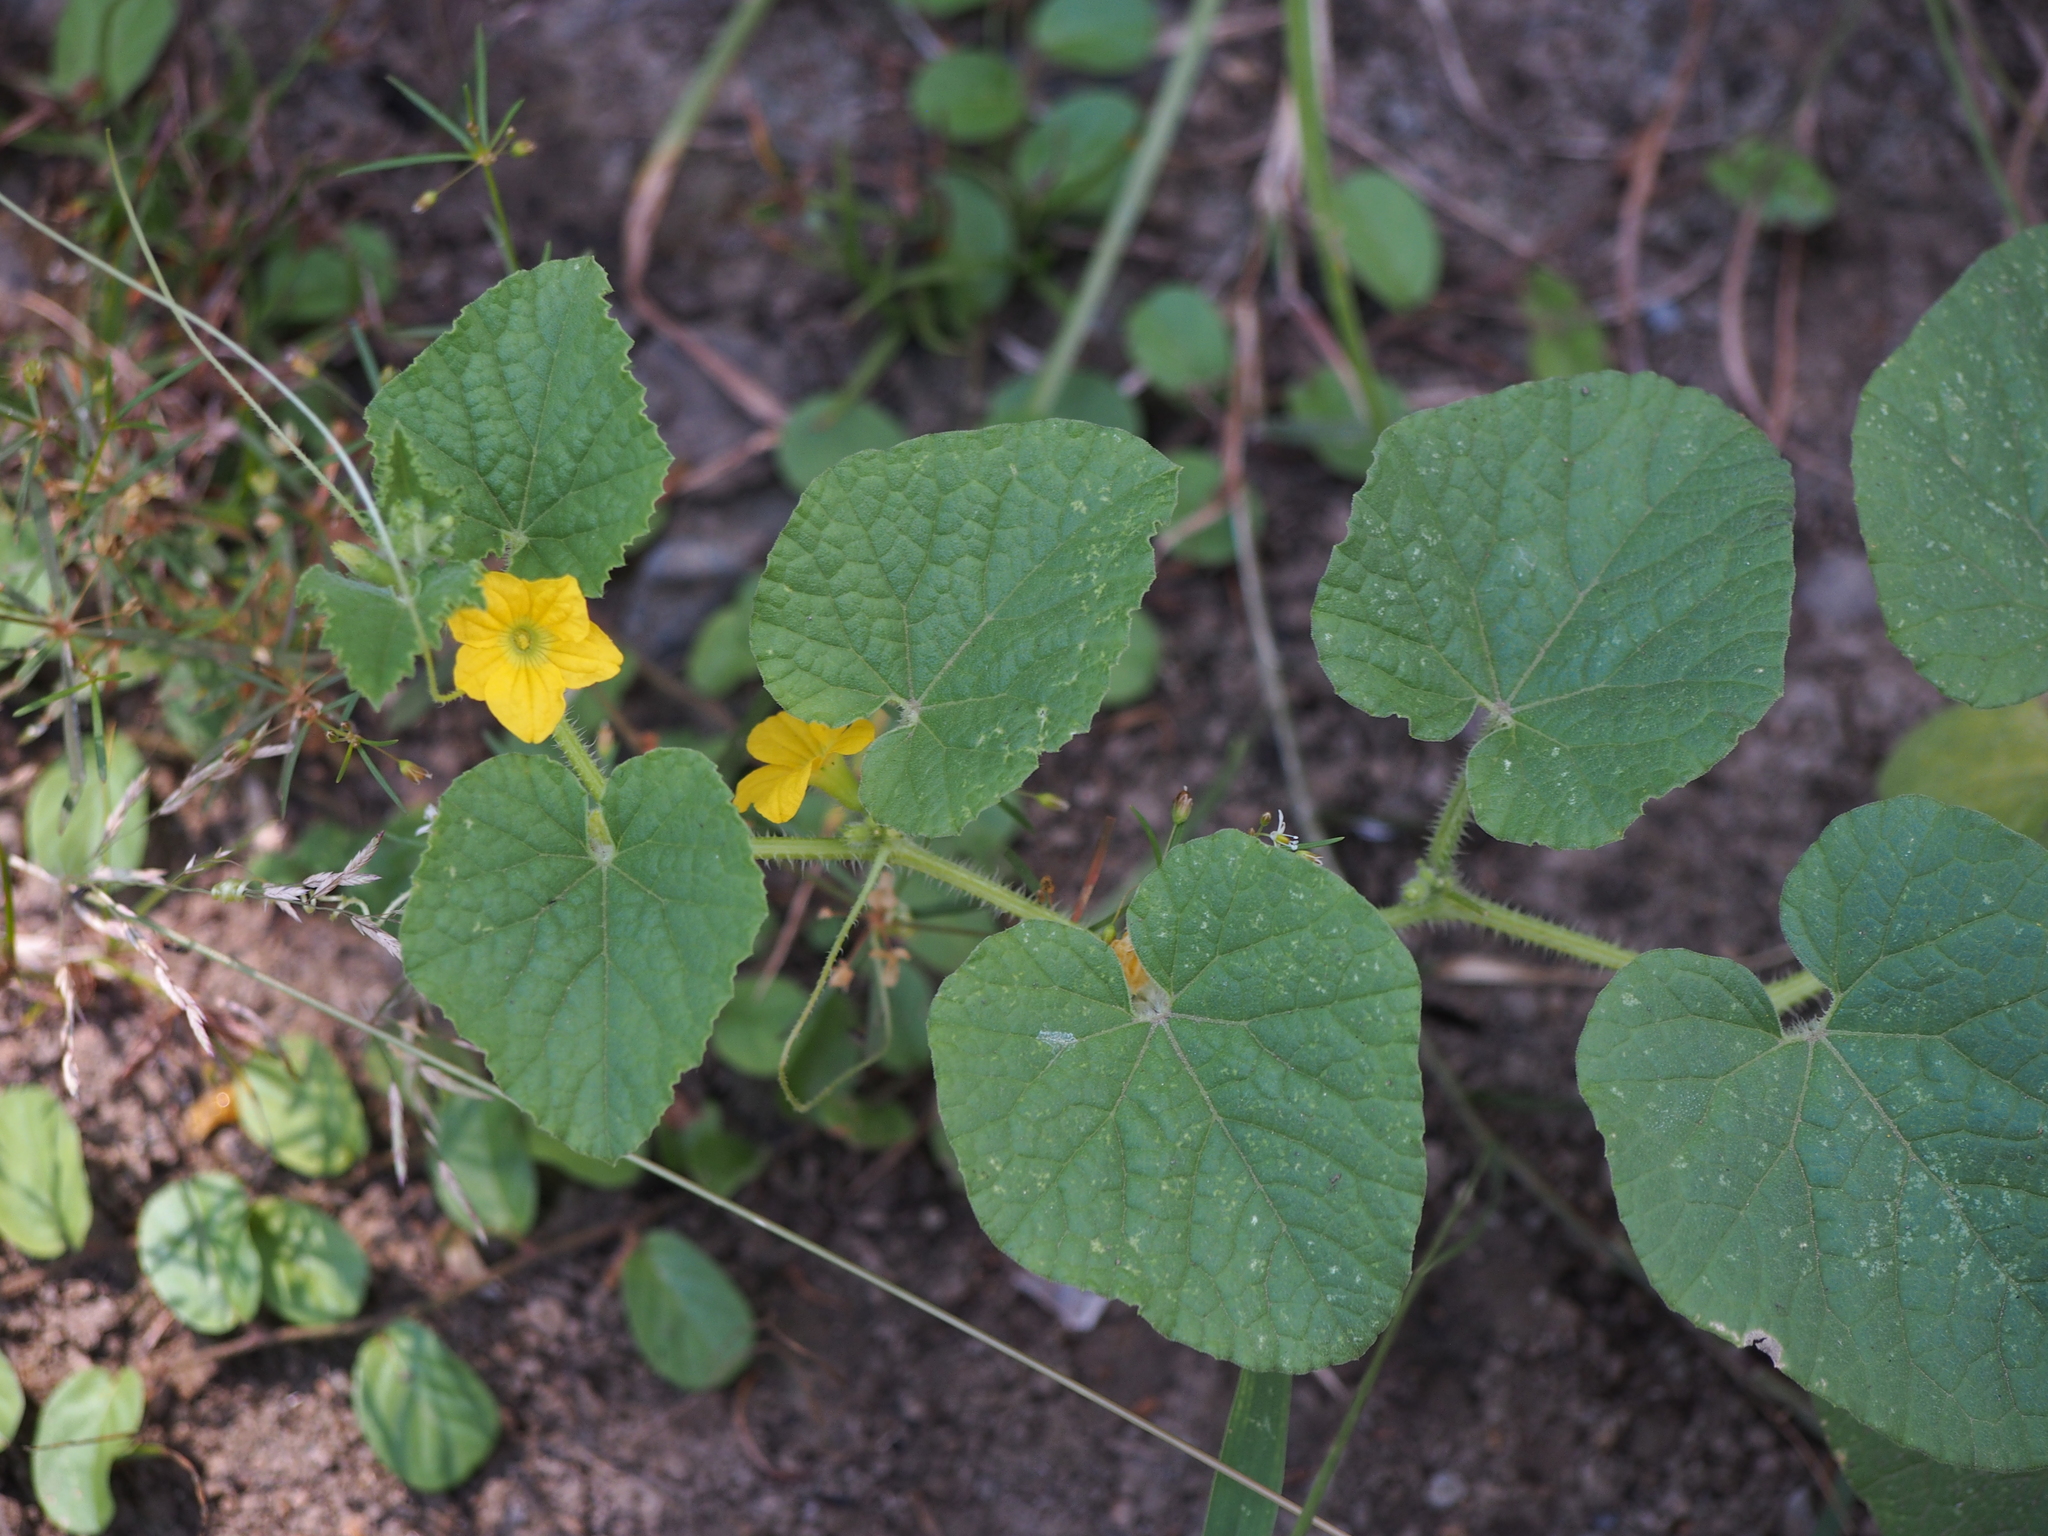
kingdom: Plantae
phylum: Tracheophyta
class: Magnoliopsida
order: Cucurbitales
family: Cucurbitaceae
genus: Cucumis
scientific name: Cucumis melo
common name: Melon
